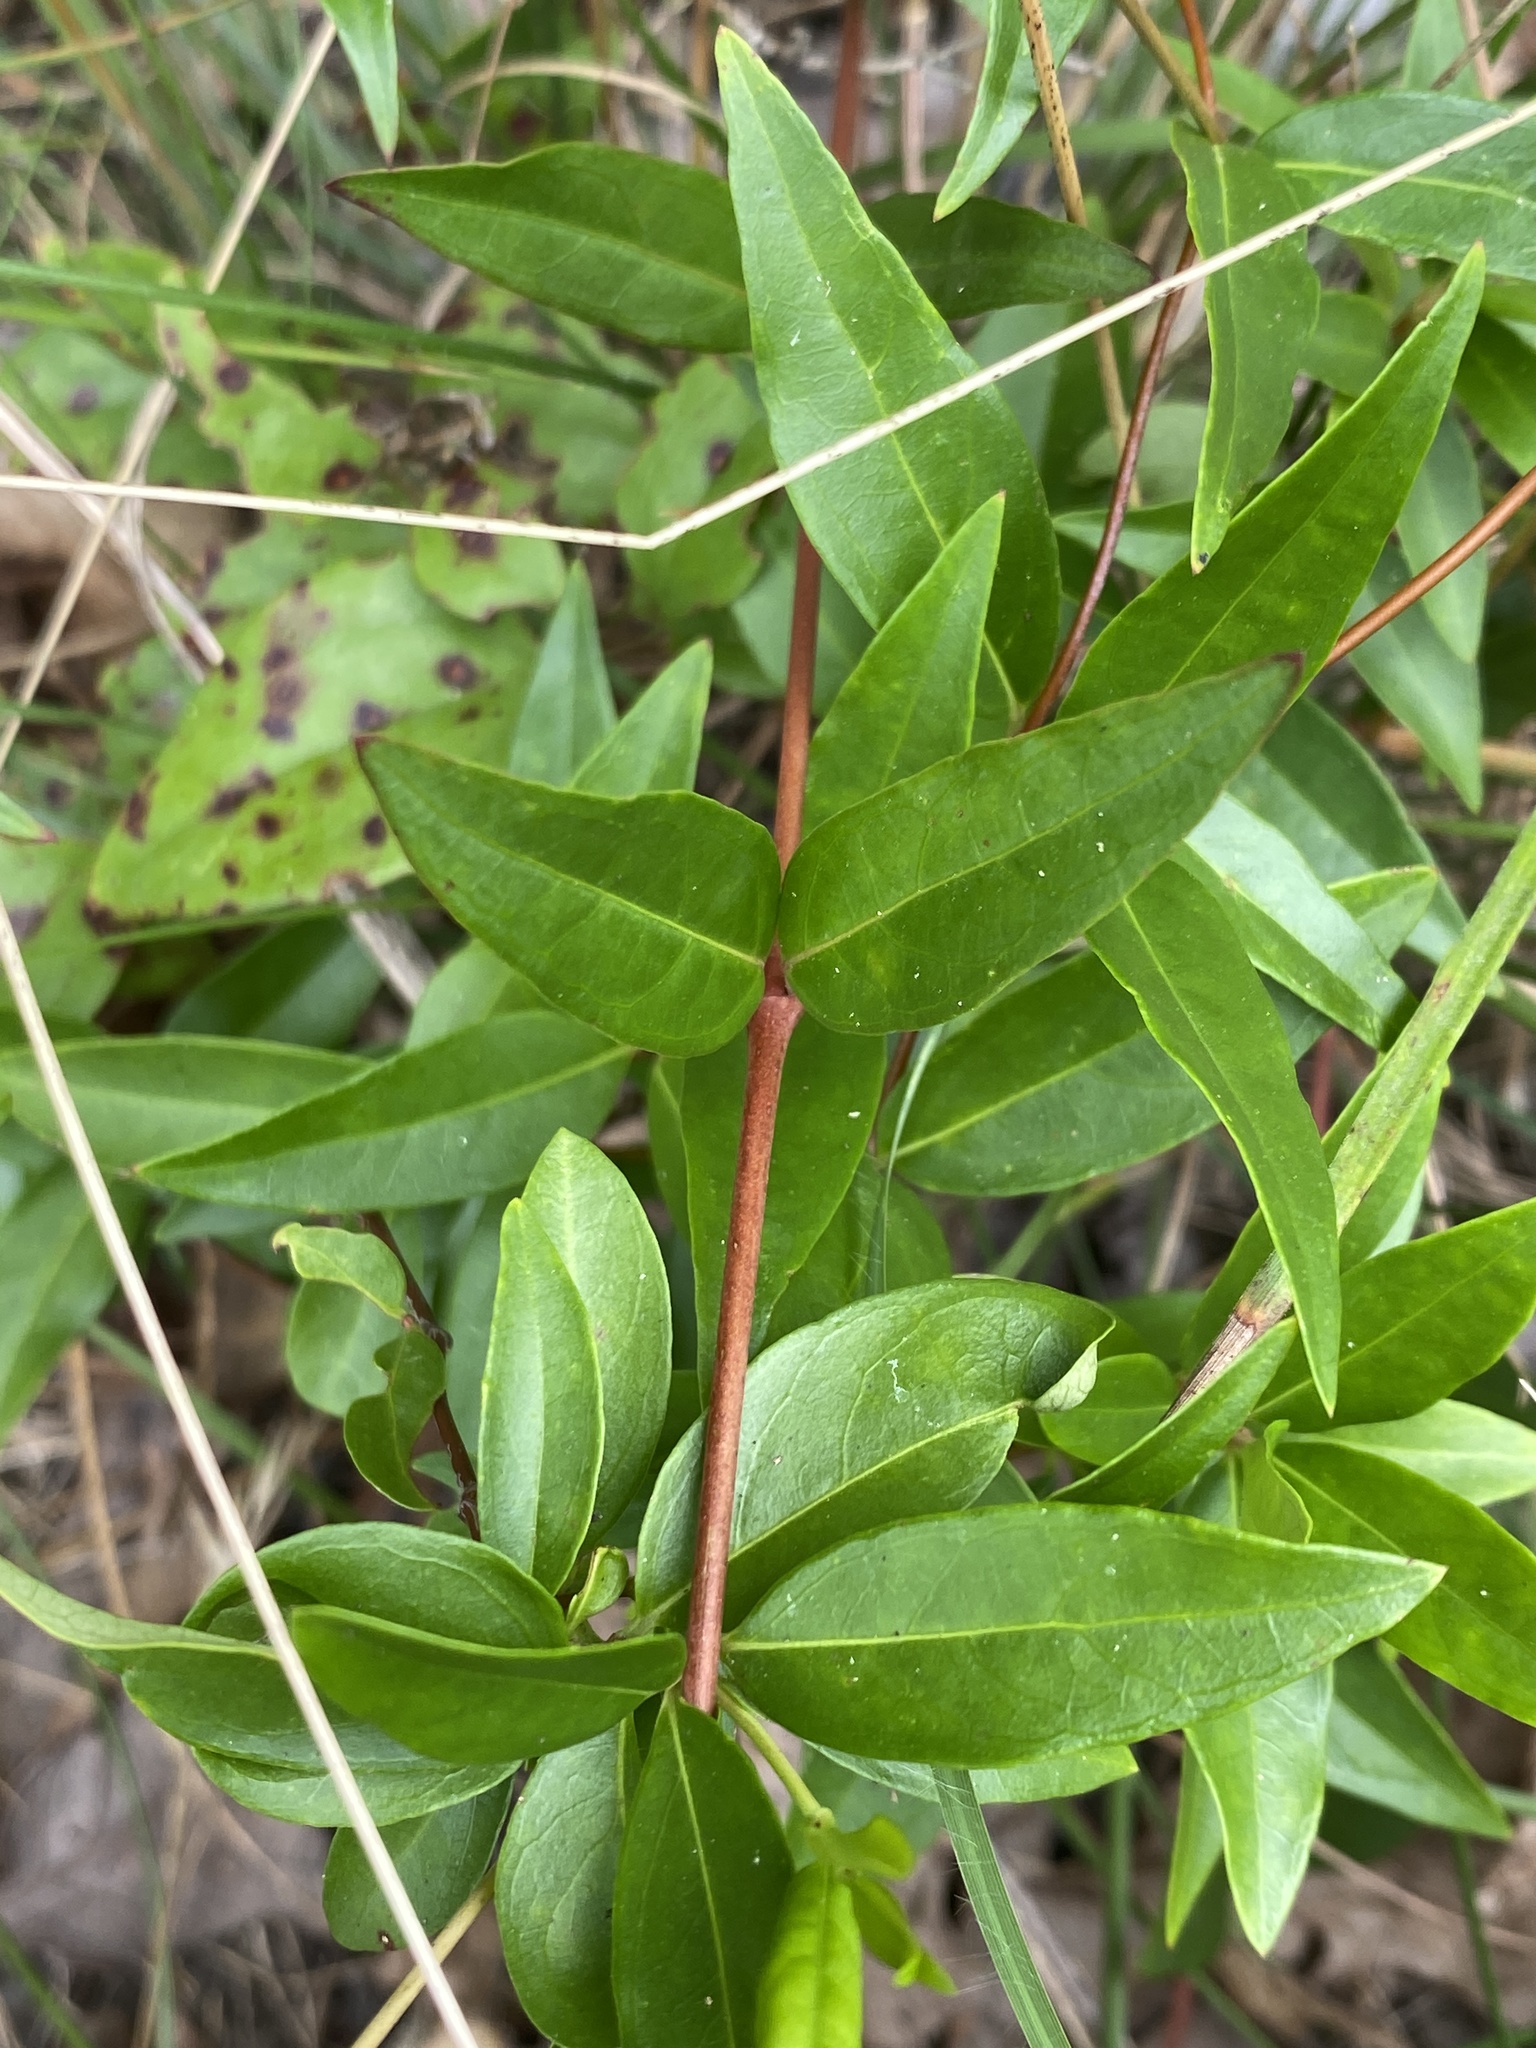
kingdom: Plantae
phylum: Tracheophyta
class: Magnoliopsida
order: Gentianales
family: Gelsemiaceae
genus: Gelsemium
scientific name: Gelsemium sempervirens
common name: Carolina-jasmine
